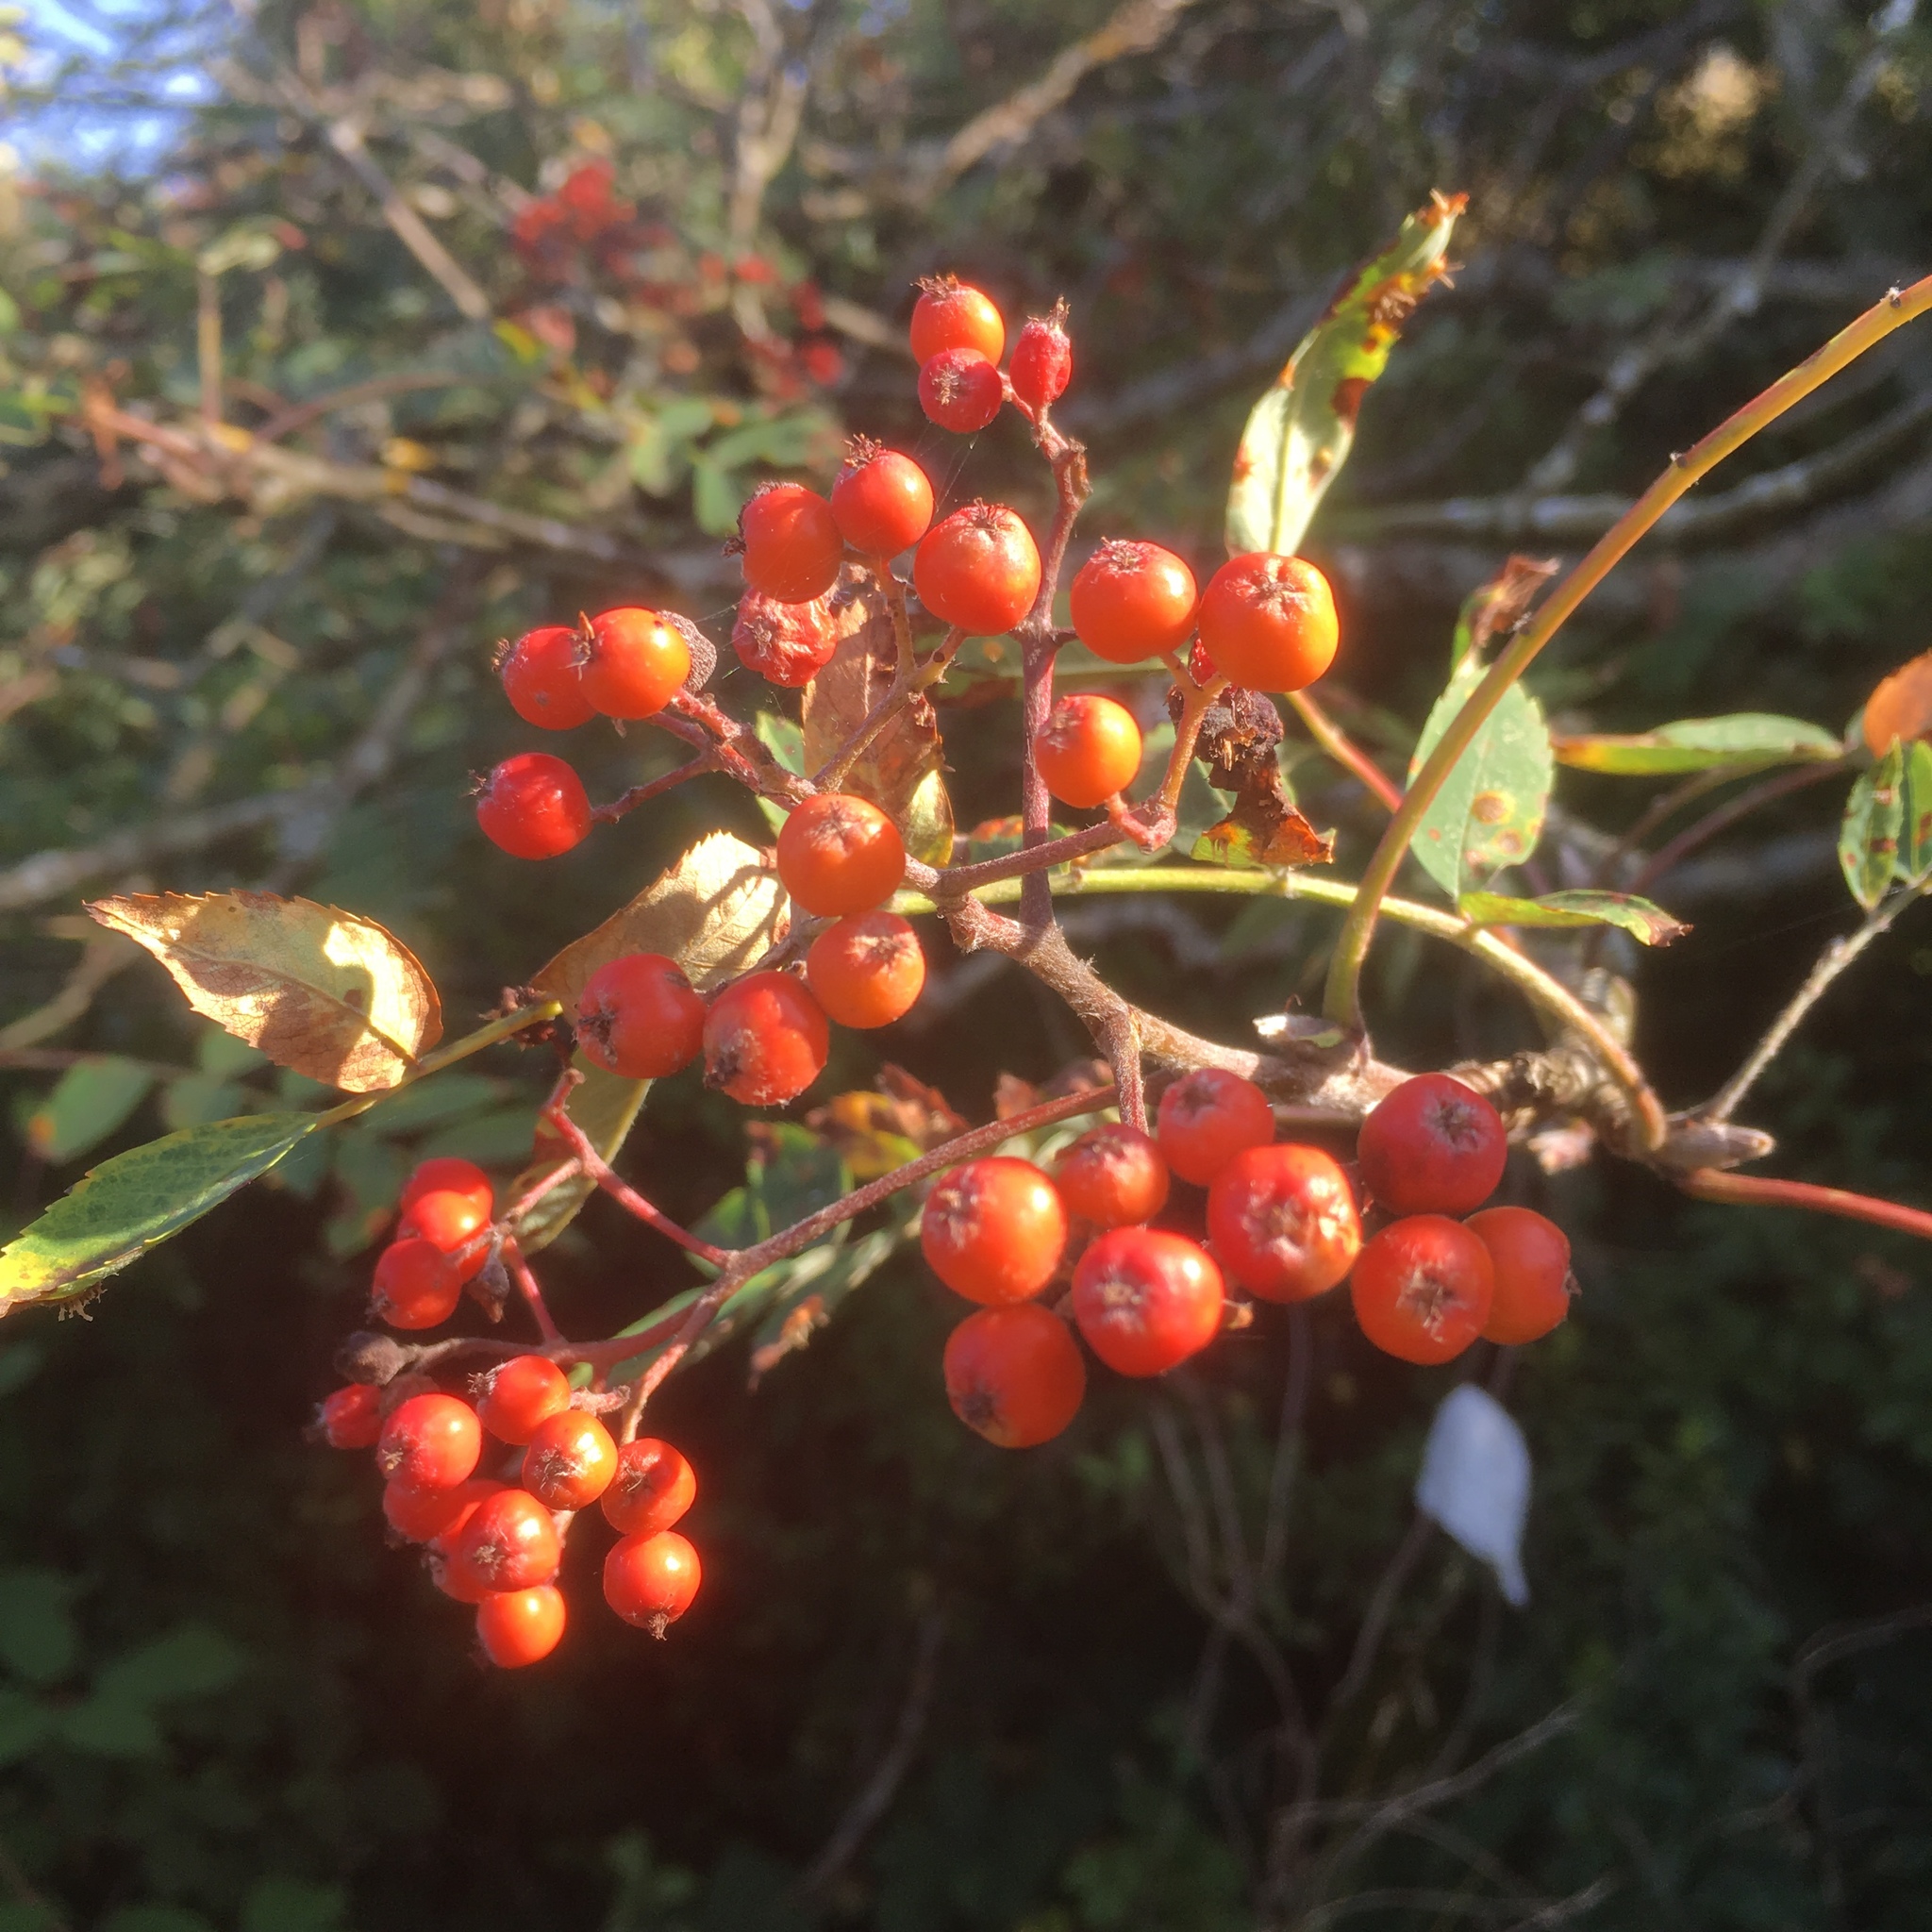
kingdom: Plantae
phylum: Tracheophyta
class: Magnoliopsida
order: Rosales
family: Rosaceae
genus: Sorbus
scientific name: Sorbus aucuparia
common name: Rowan
